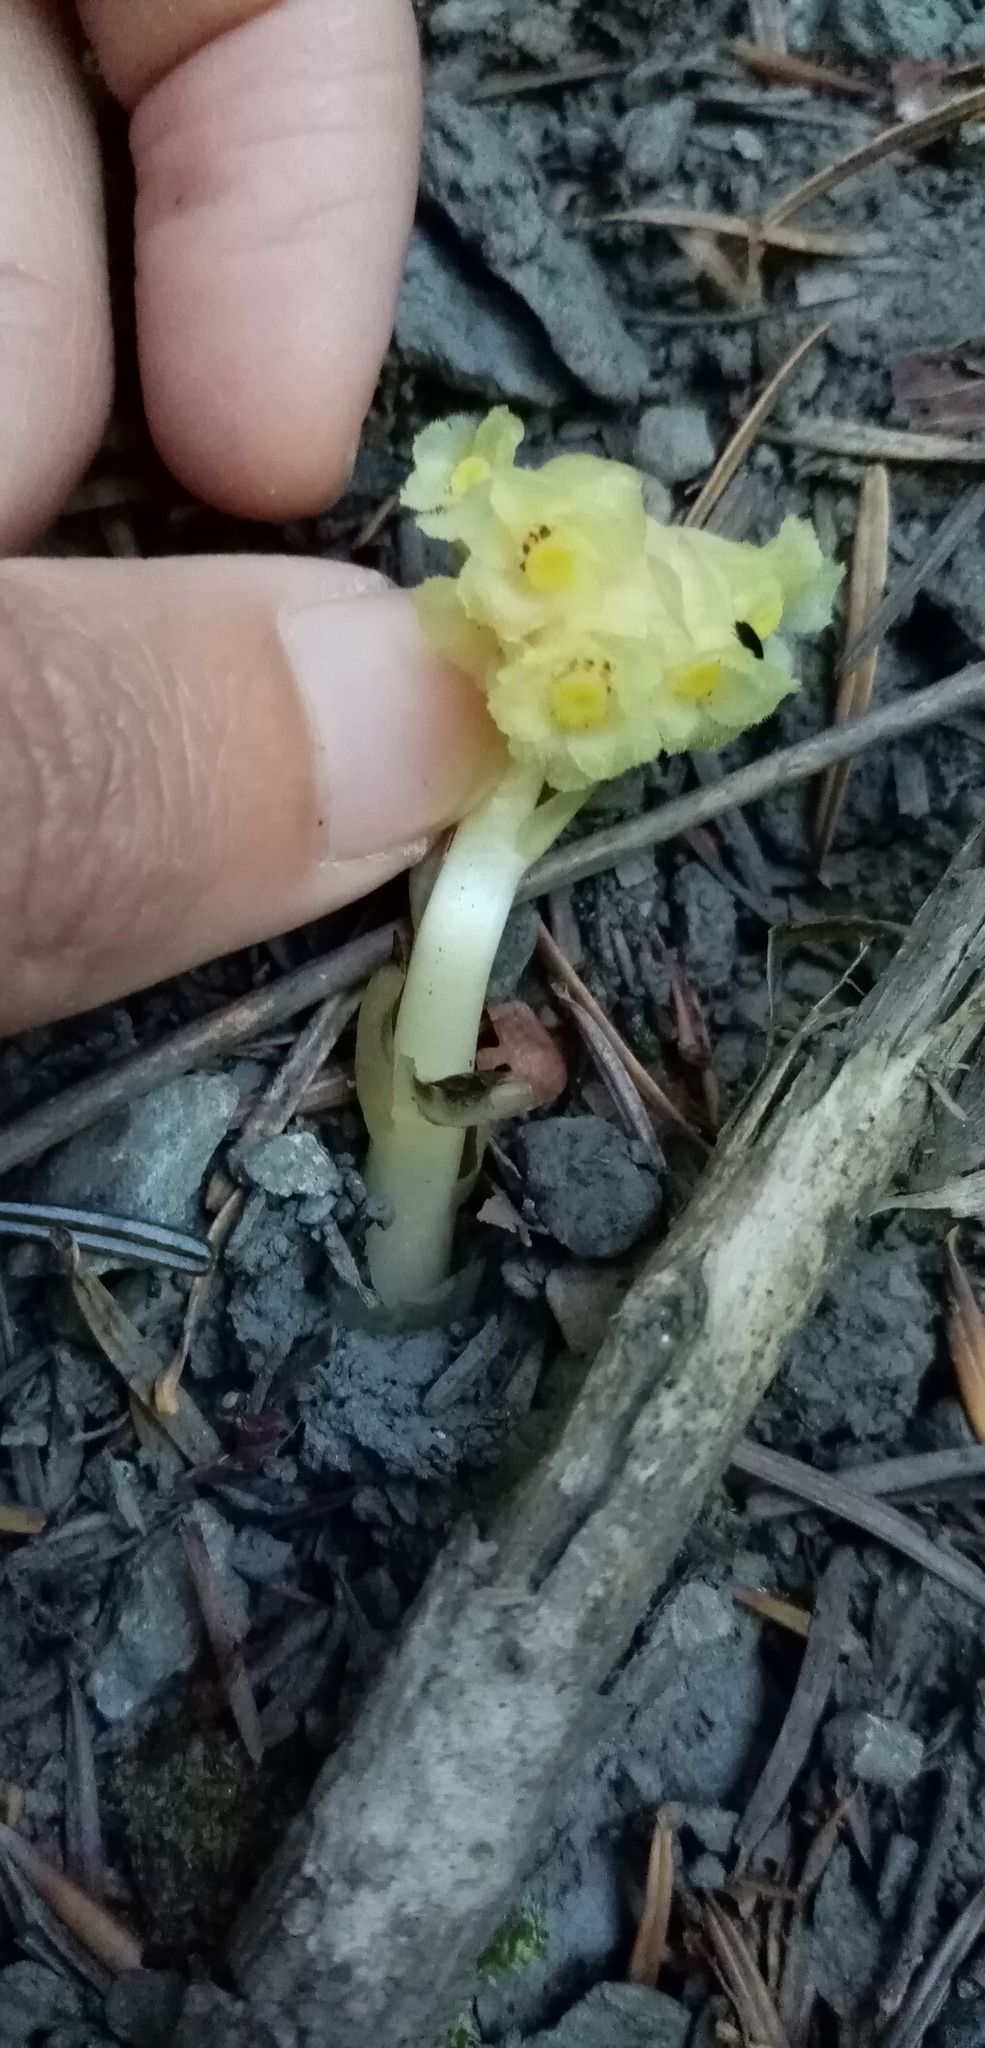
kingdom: Plantae
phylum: Tracheophyta
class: Magnoliopsida
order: Ericales
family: Ericaceae
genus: Hypopitys
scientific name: Hypopitys monotropa
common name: Yellow bird's-nest
